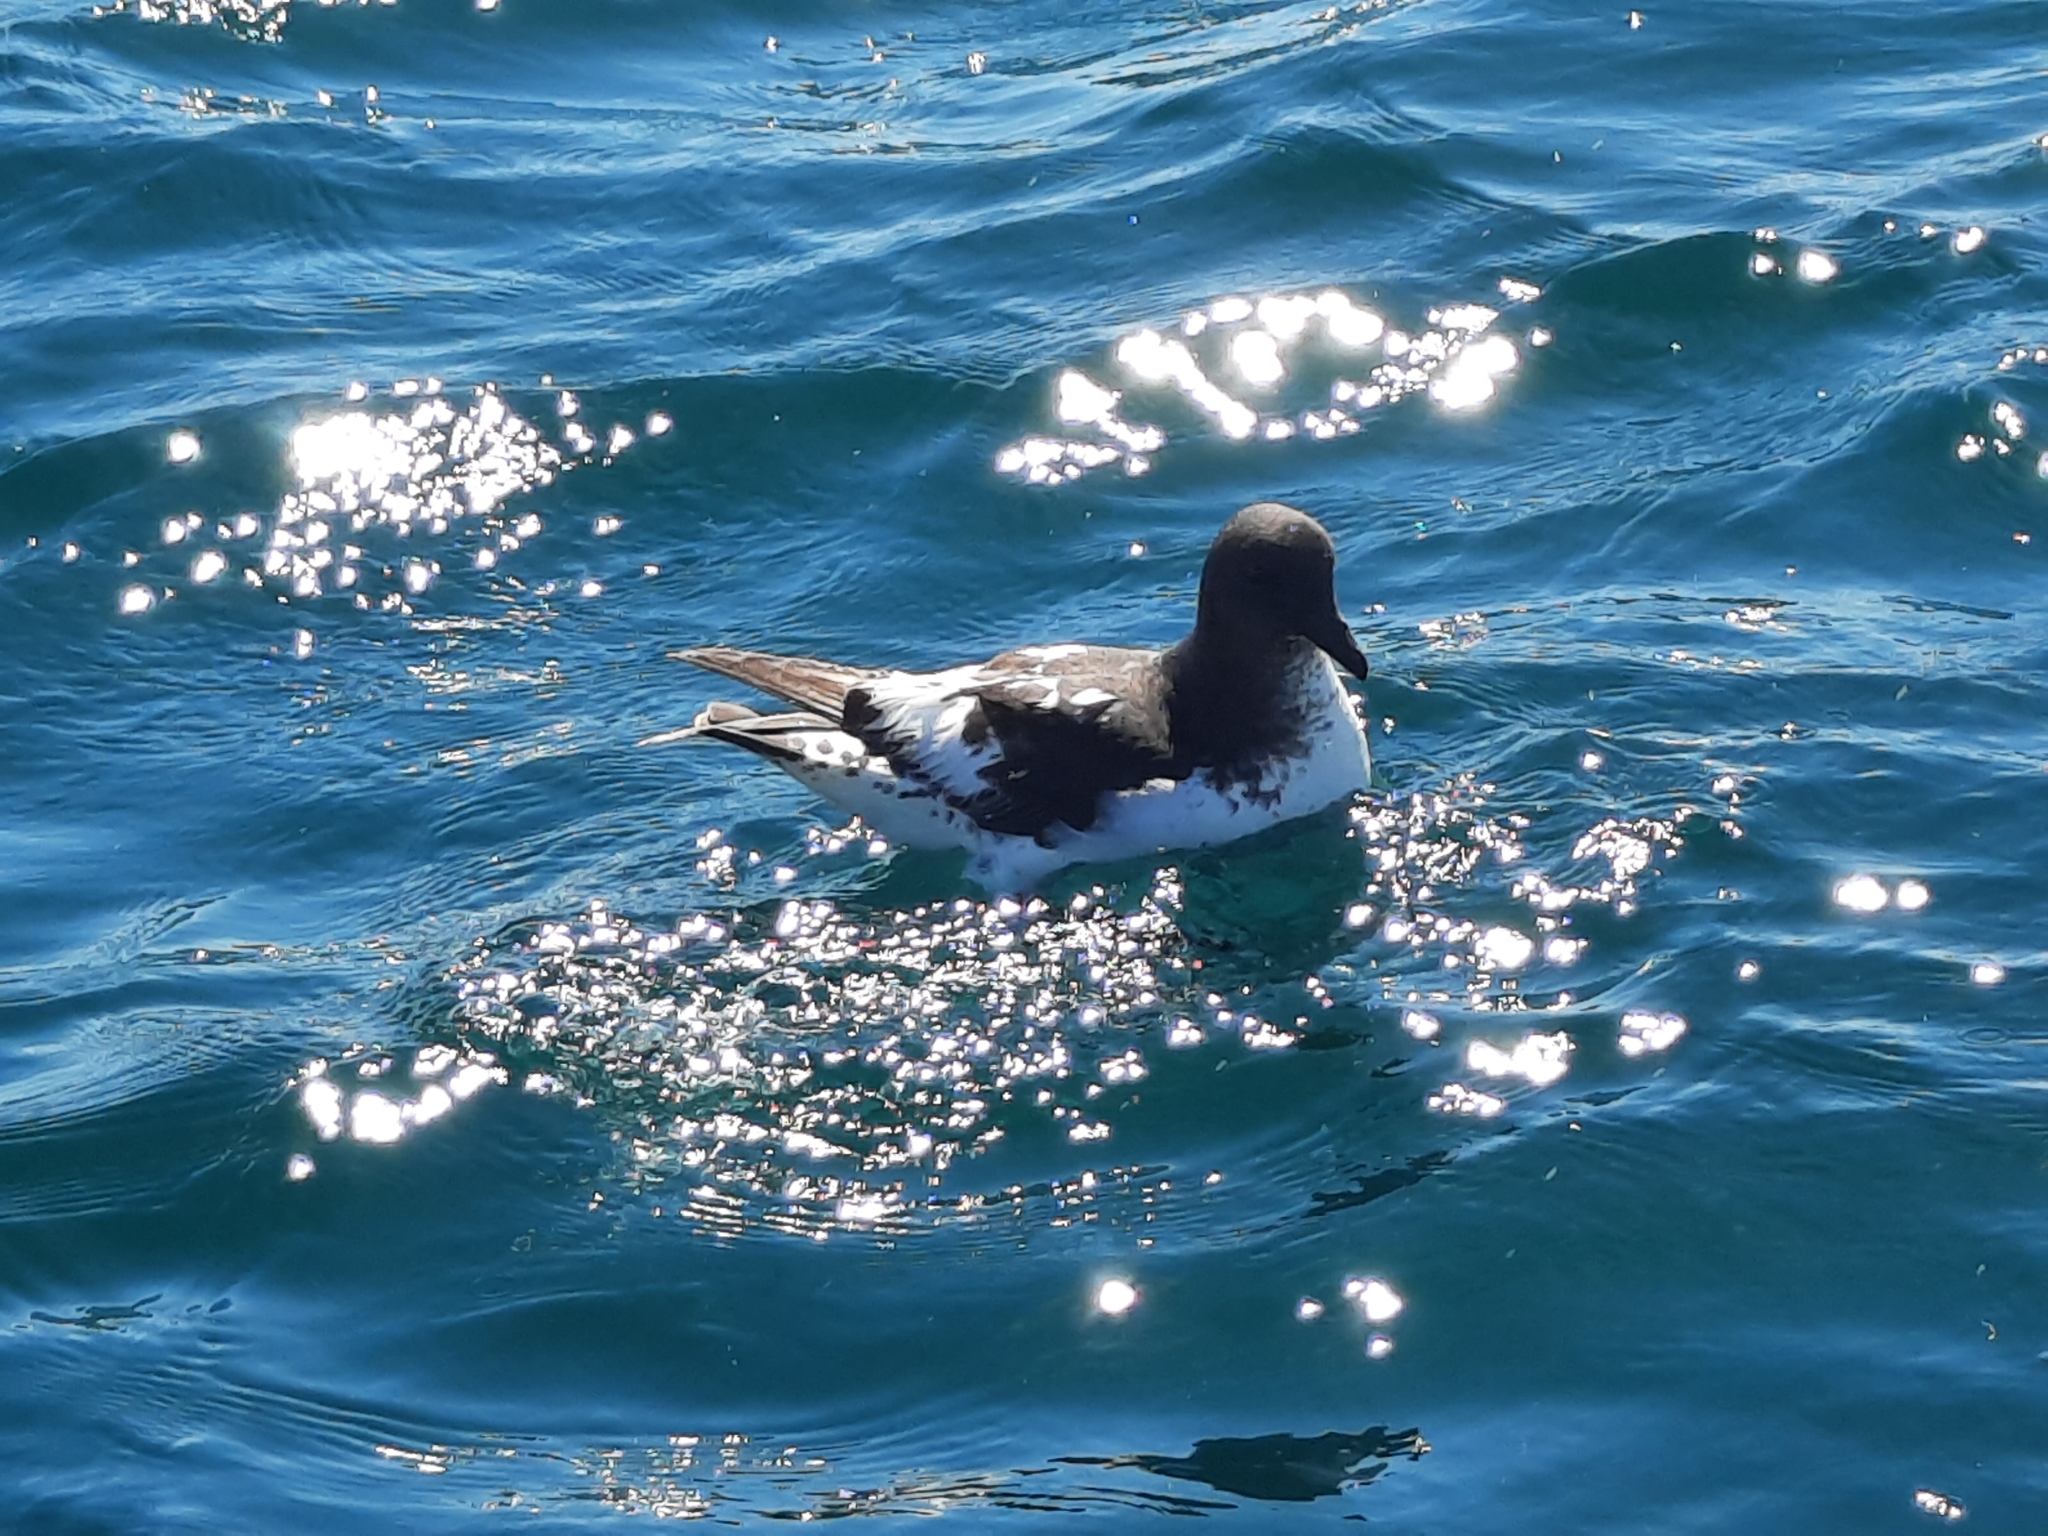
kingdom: Animalia
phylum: Chordata
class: Aves
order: Procellariiformes
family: Procellariidae
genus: Daption
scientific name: Daption capense
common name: Cape petrel
